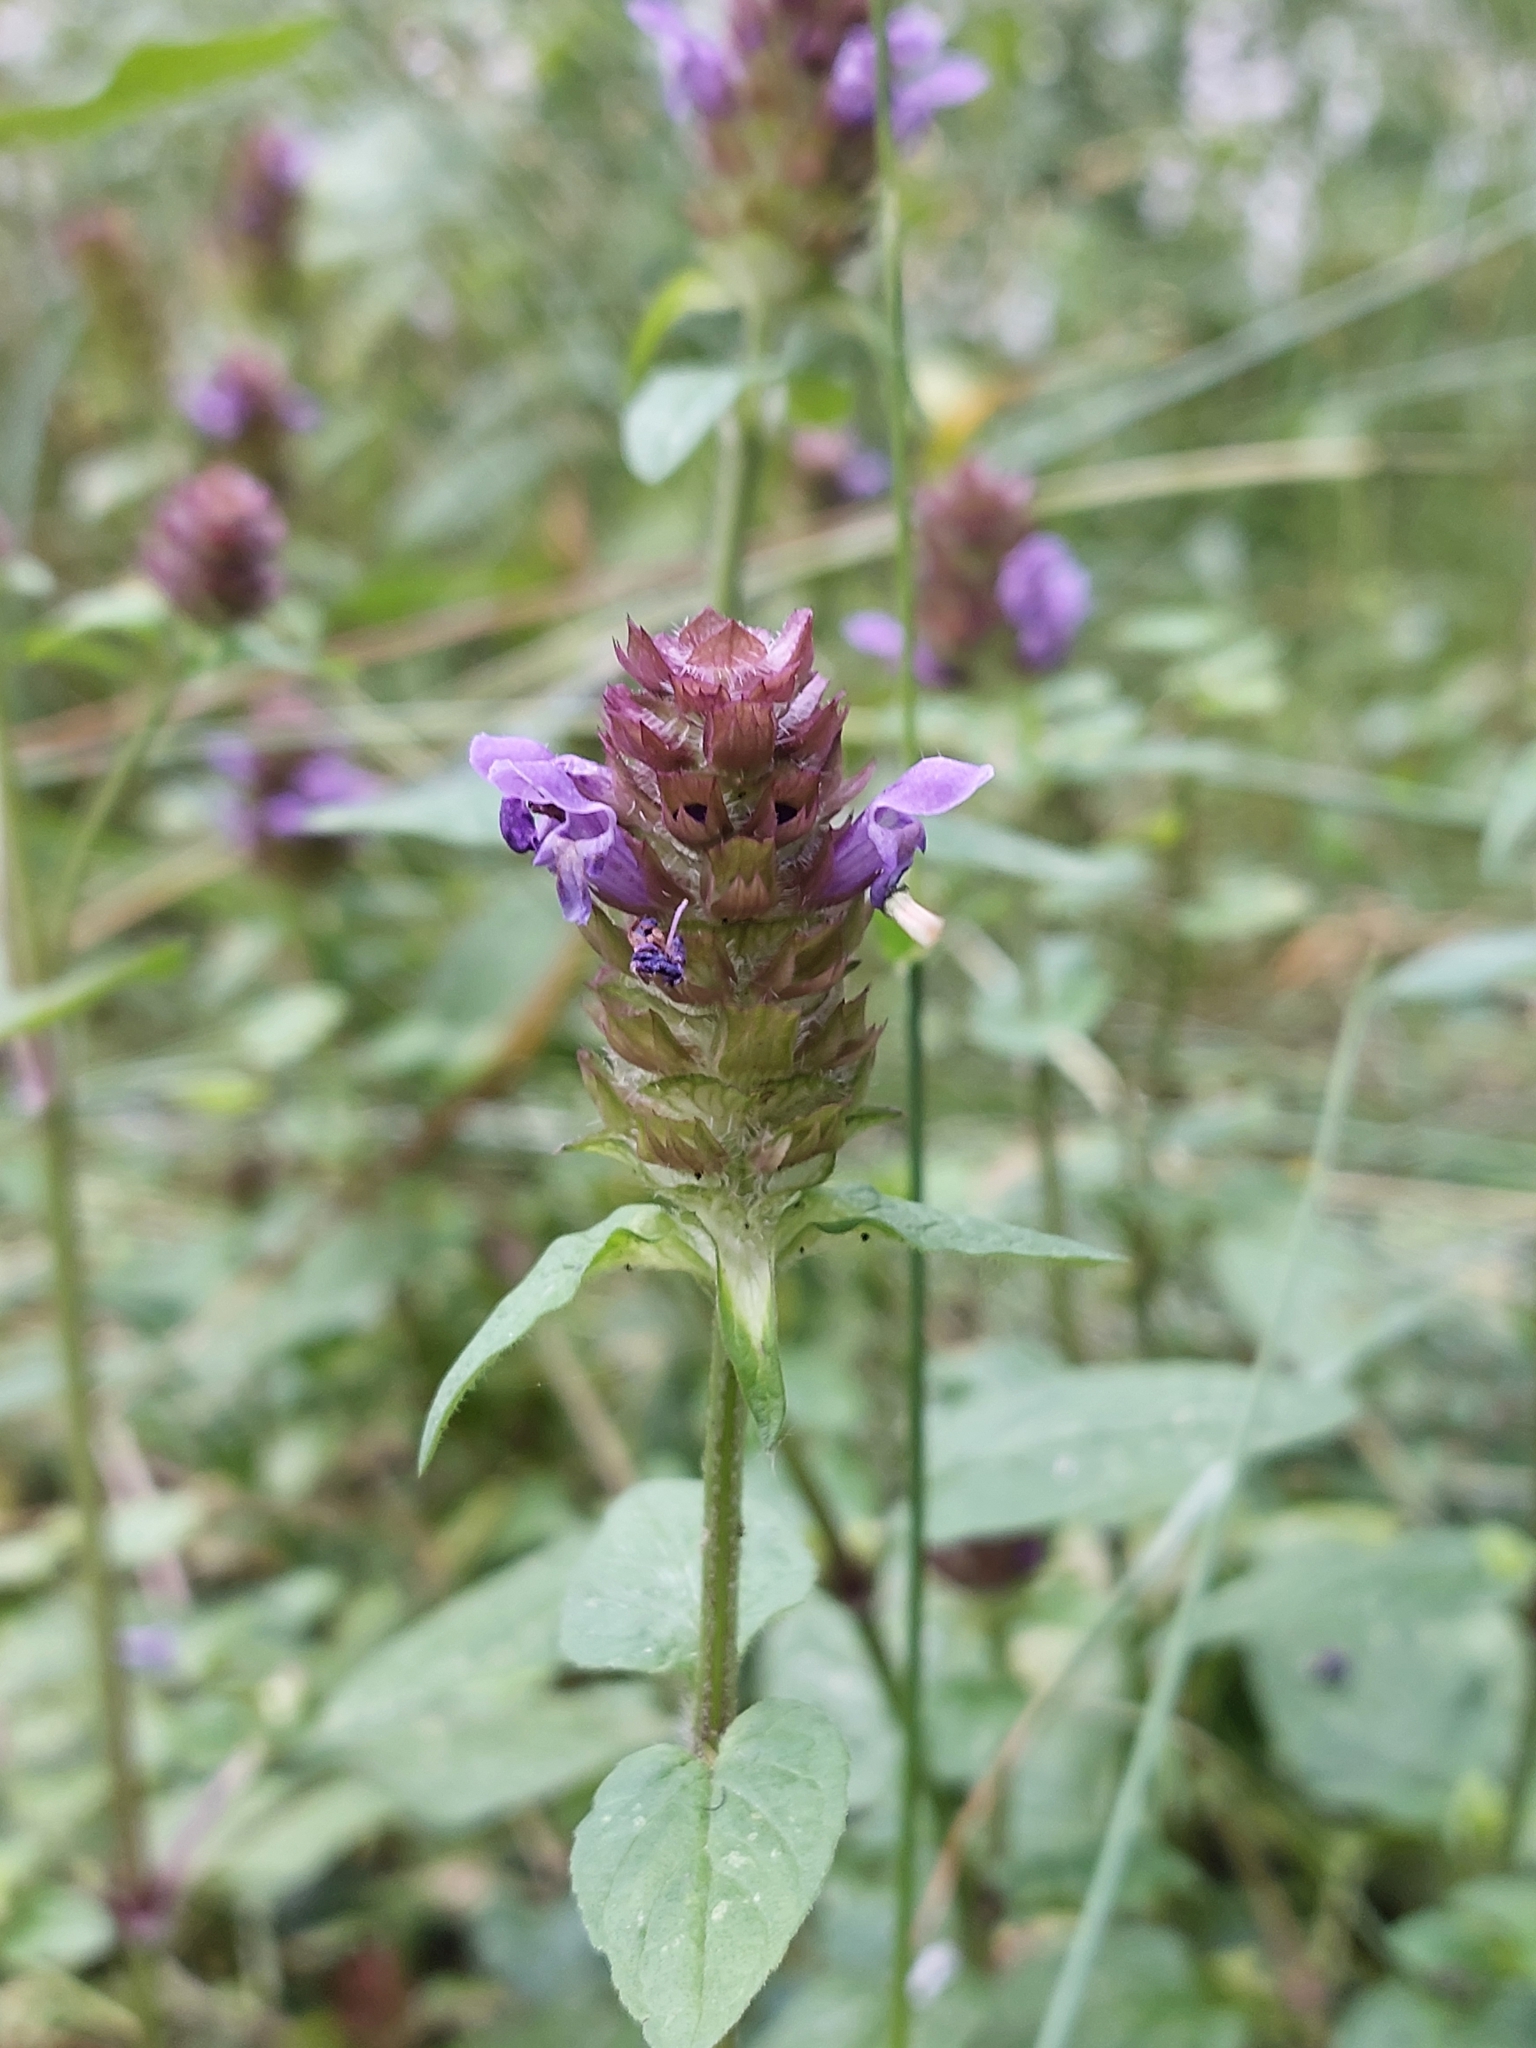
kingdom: Plantae
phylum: Tracheophyta
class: Magnoliopsida
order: Lamiales
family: Lamiaceae
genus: Prunella
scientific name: Prunella vulgaris
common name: Heal-all
